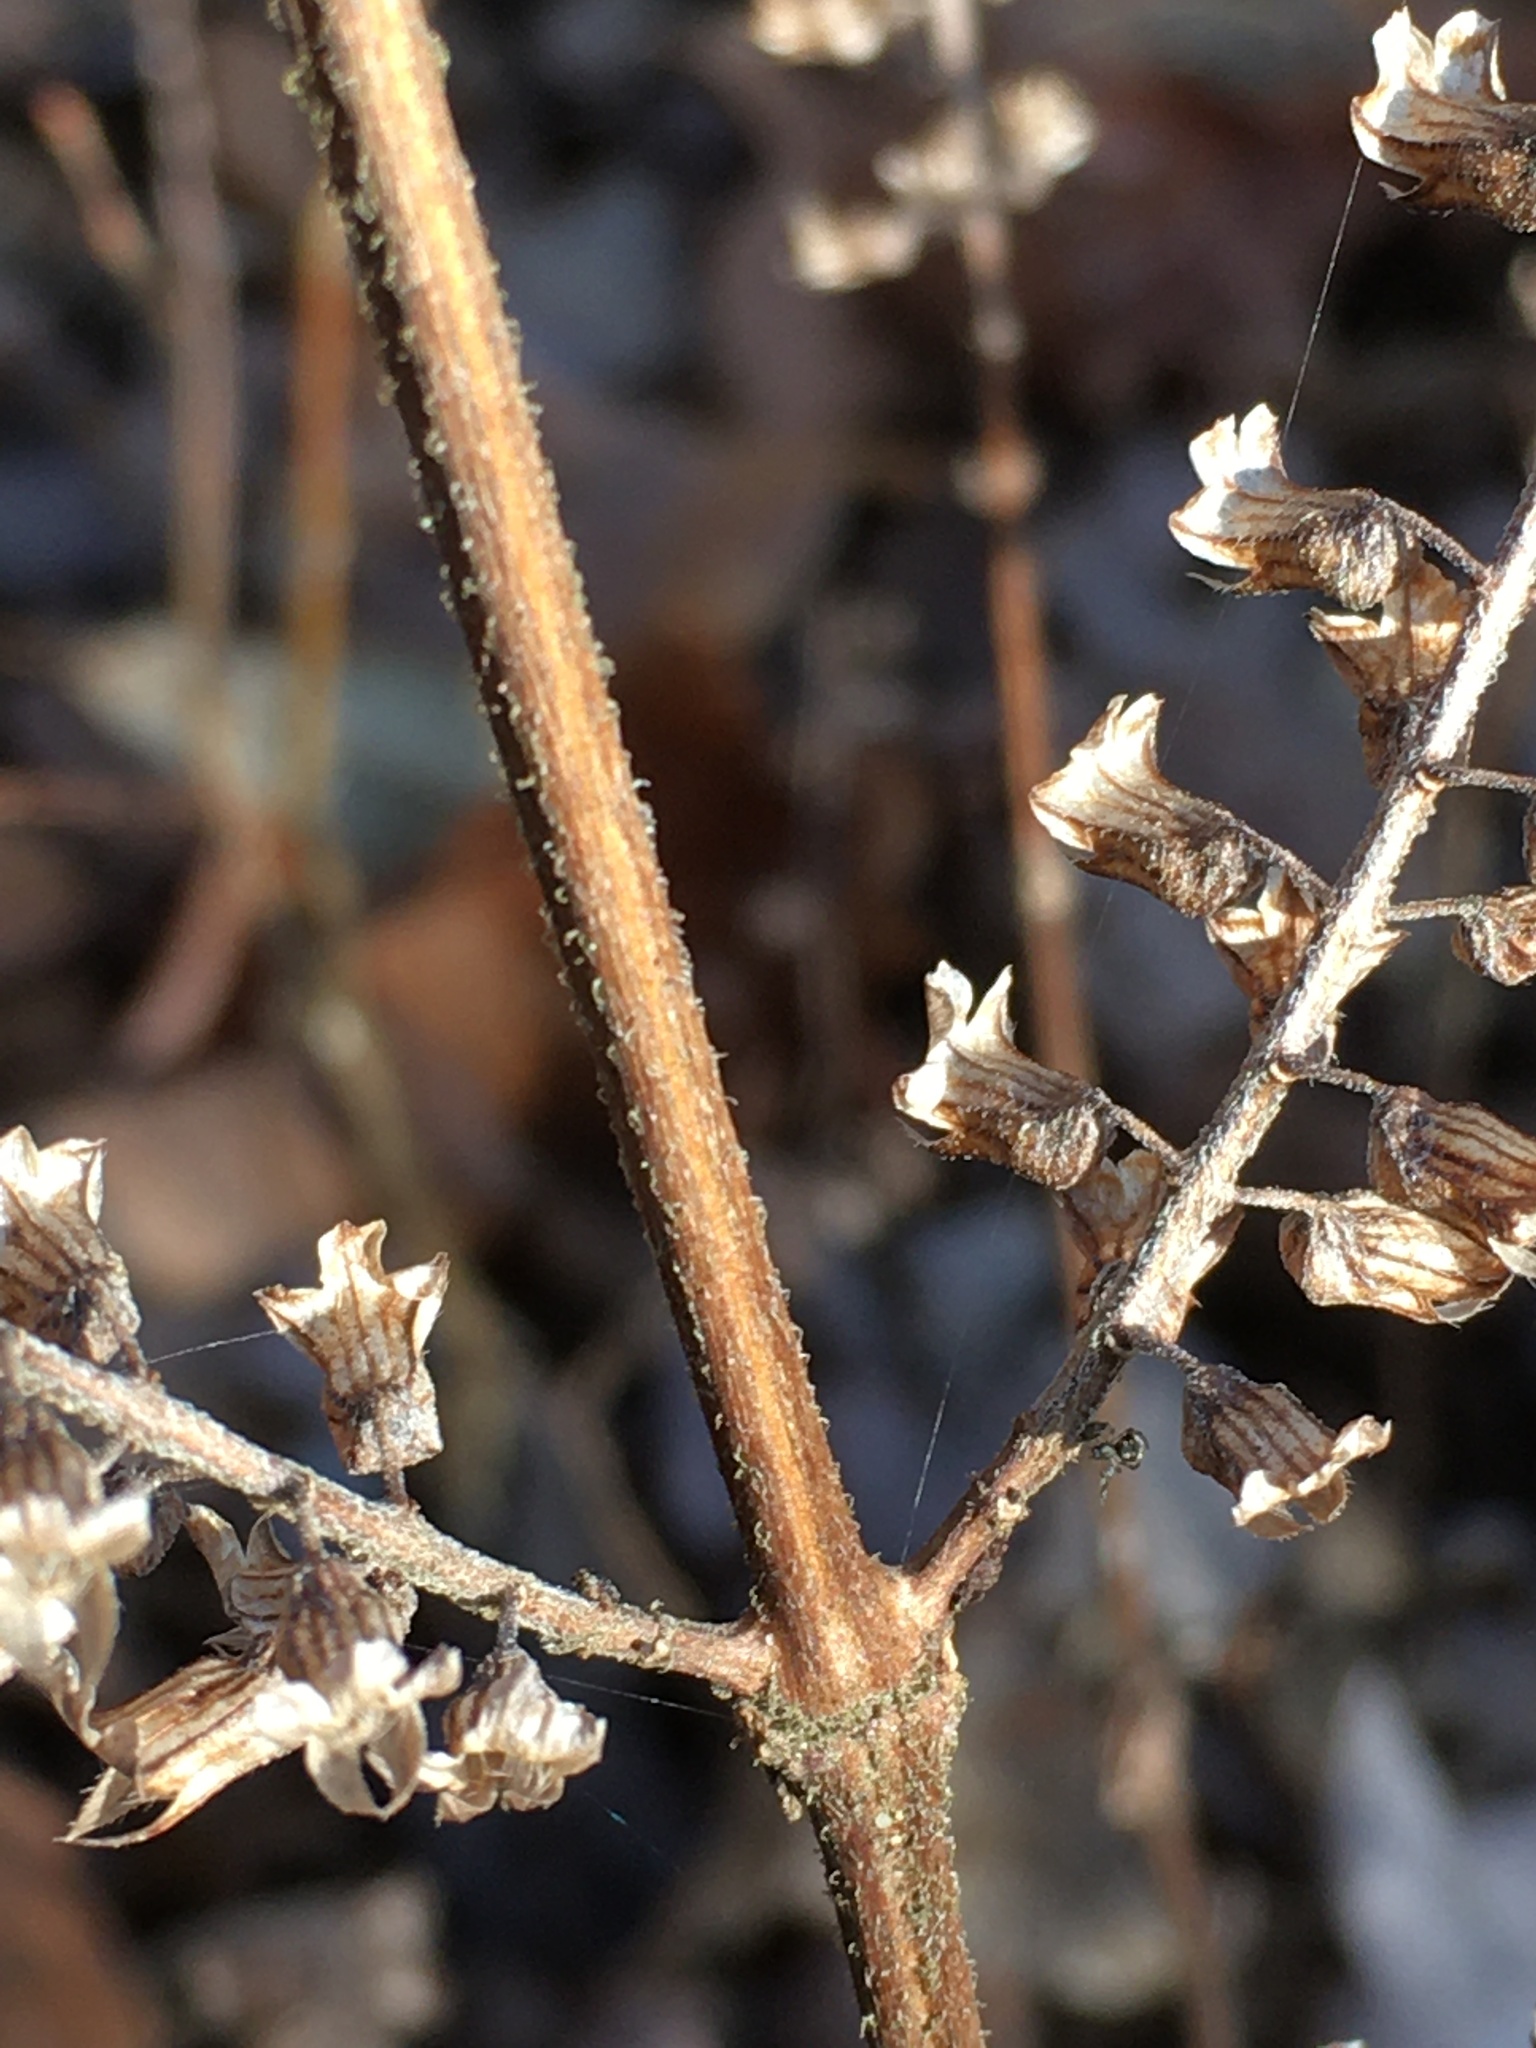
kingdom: Plantae
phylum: Tracheophyta
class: Magnoliopsida
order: Lamiales
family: Lamiaceae
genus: Perilla
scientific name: Perilla frutescens
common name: Perilla
